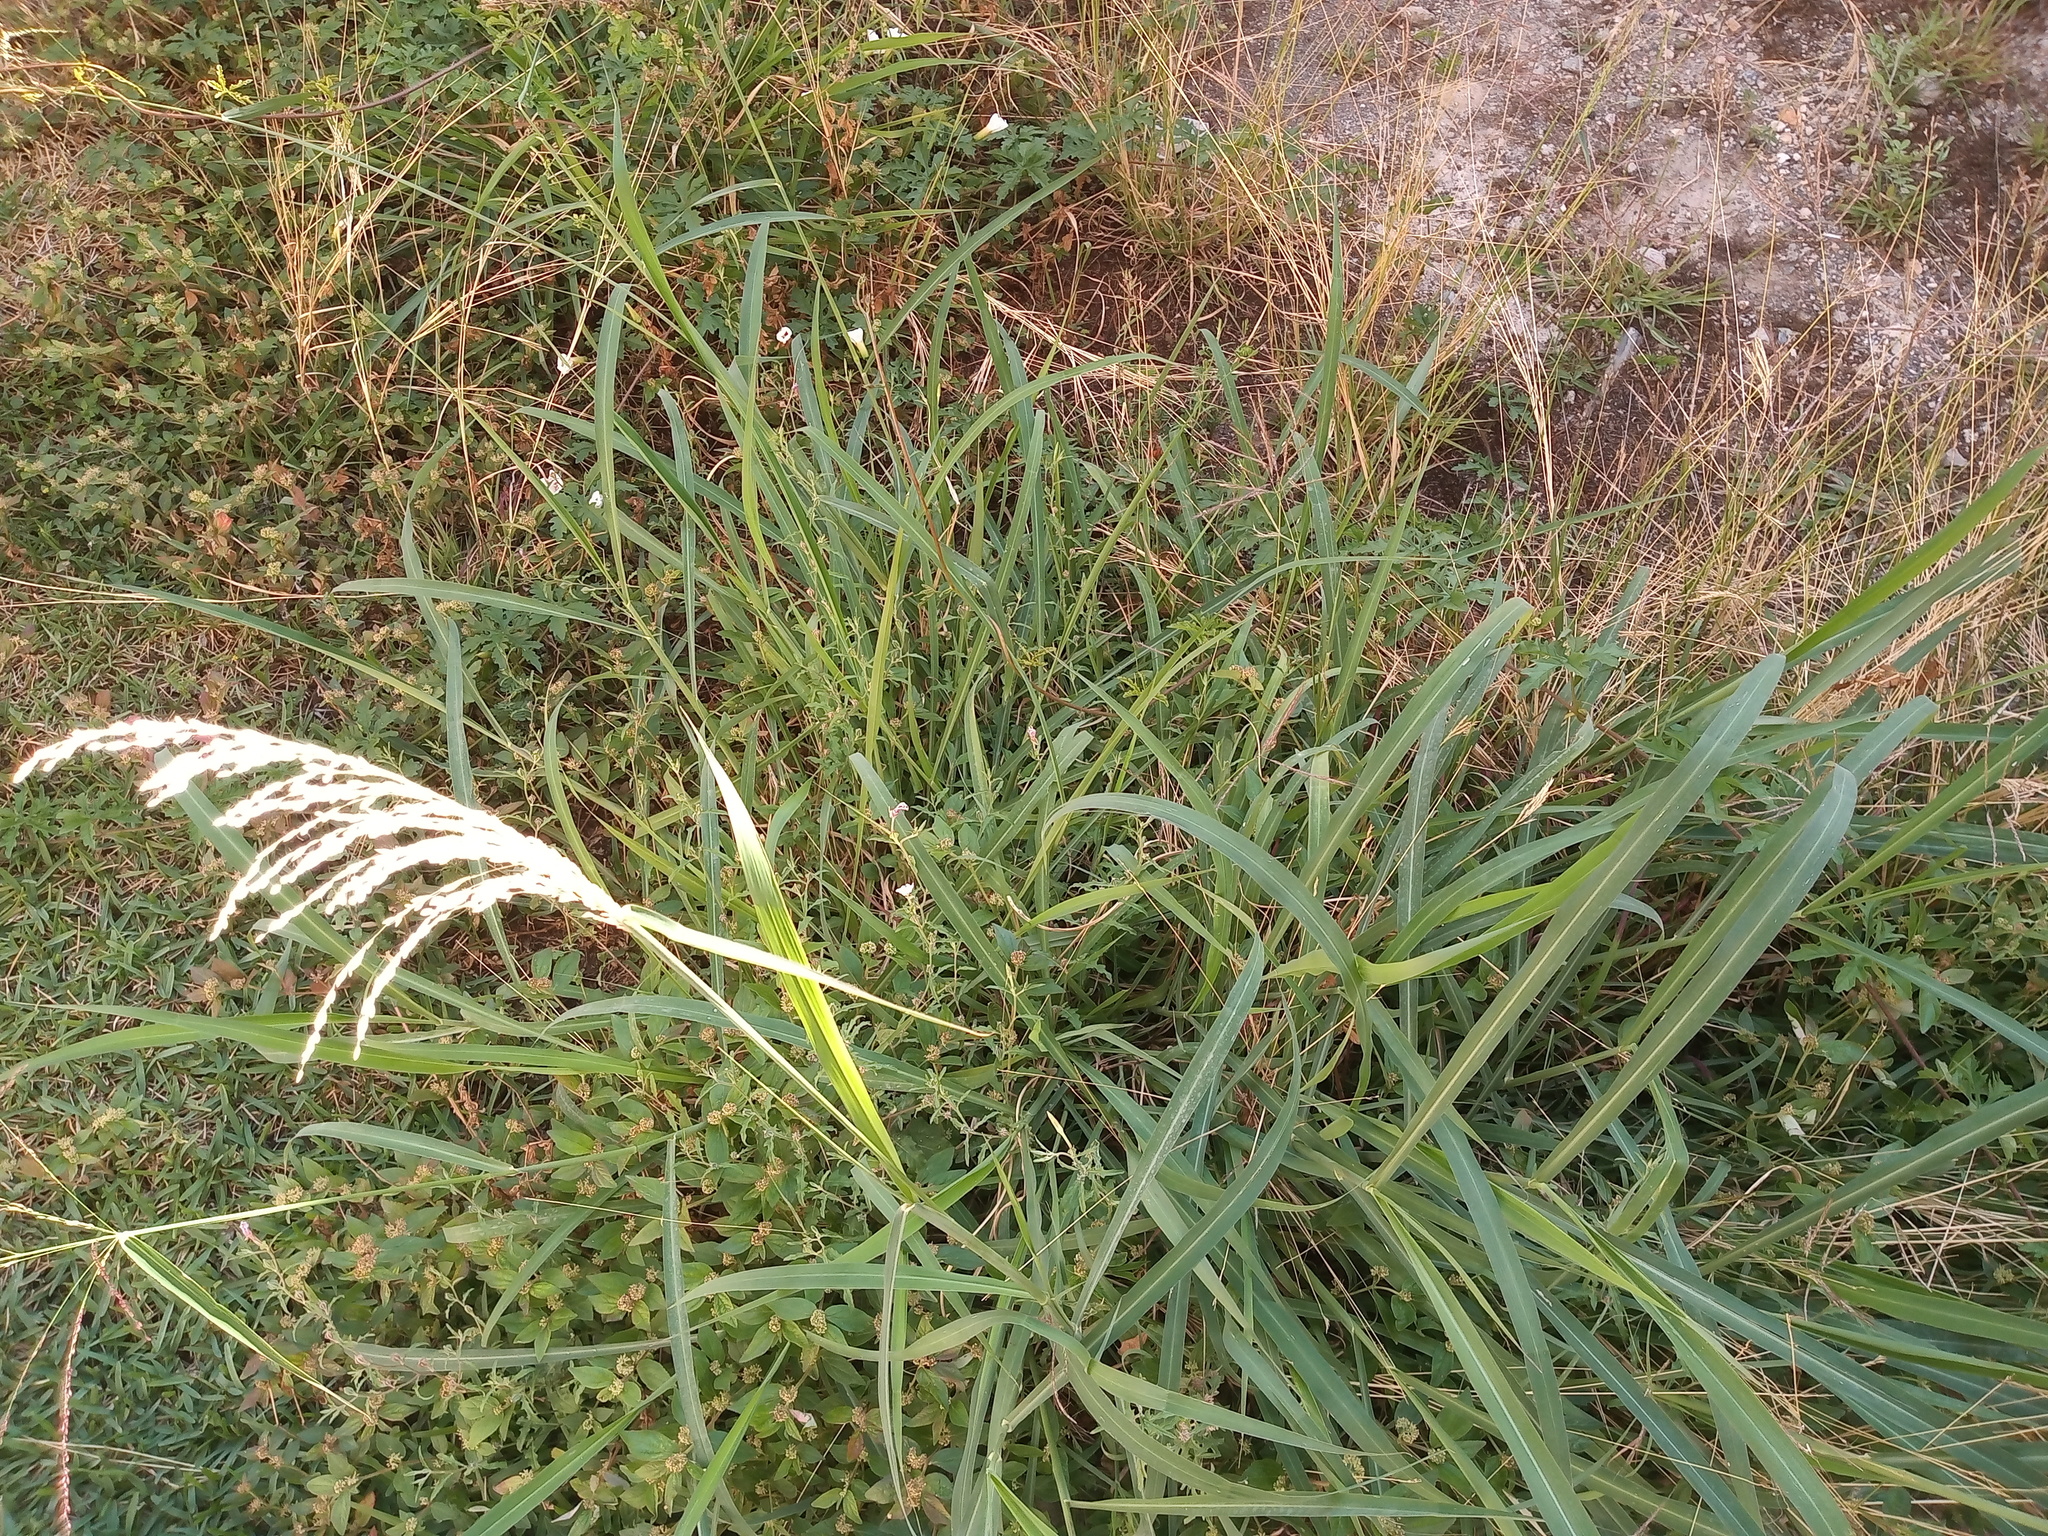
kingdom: Plantae
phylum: Tracheophyta
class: Liliopsida
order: Poales
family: Poaceae
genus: Megathyrsus
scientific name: Megathyrsus maximus
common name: Guineagrass
